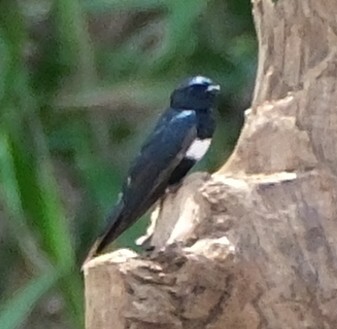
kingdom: Animalia
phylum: Chordata
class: Aves
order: Passeriformes
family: Hirundinidae
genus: Atticora
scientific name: Atticora fasciata
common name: White-banded swallow
